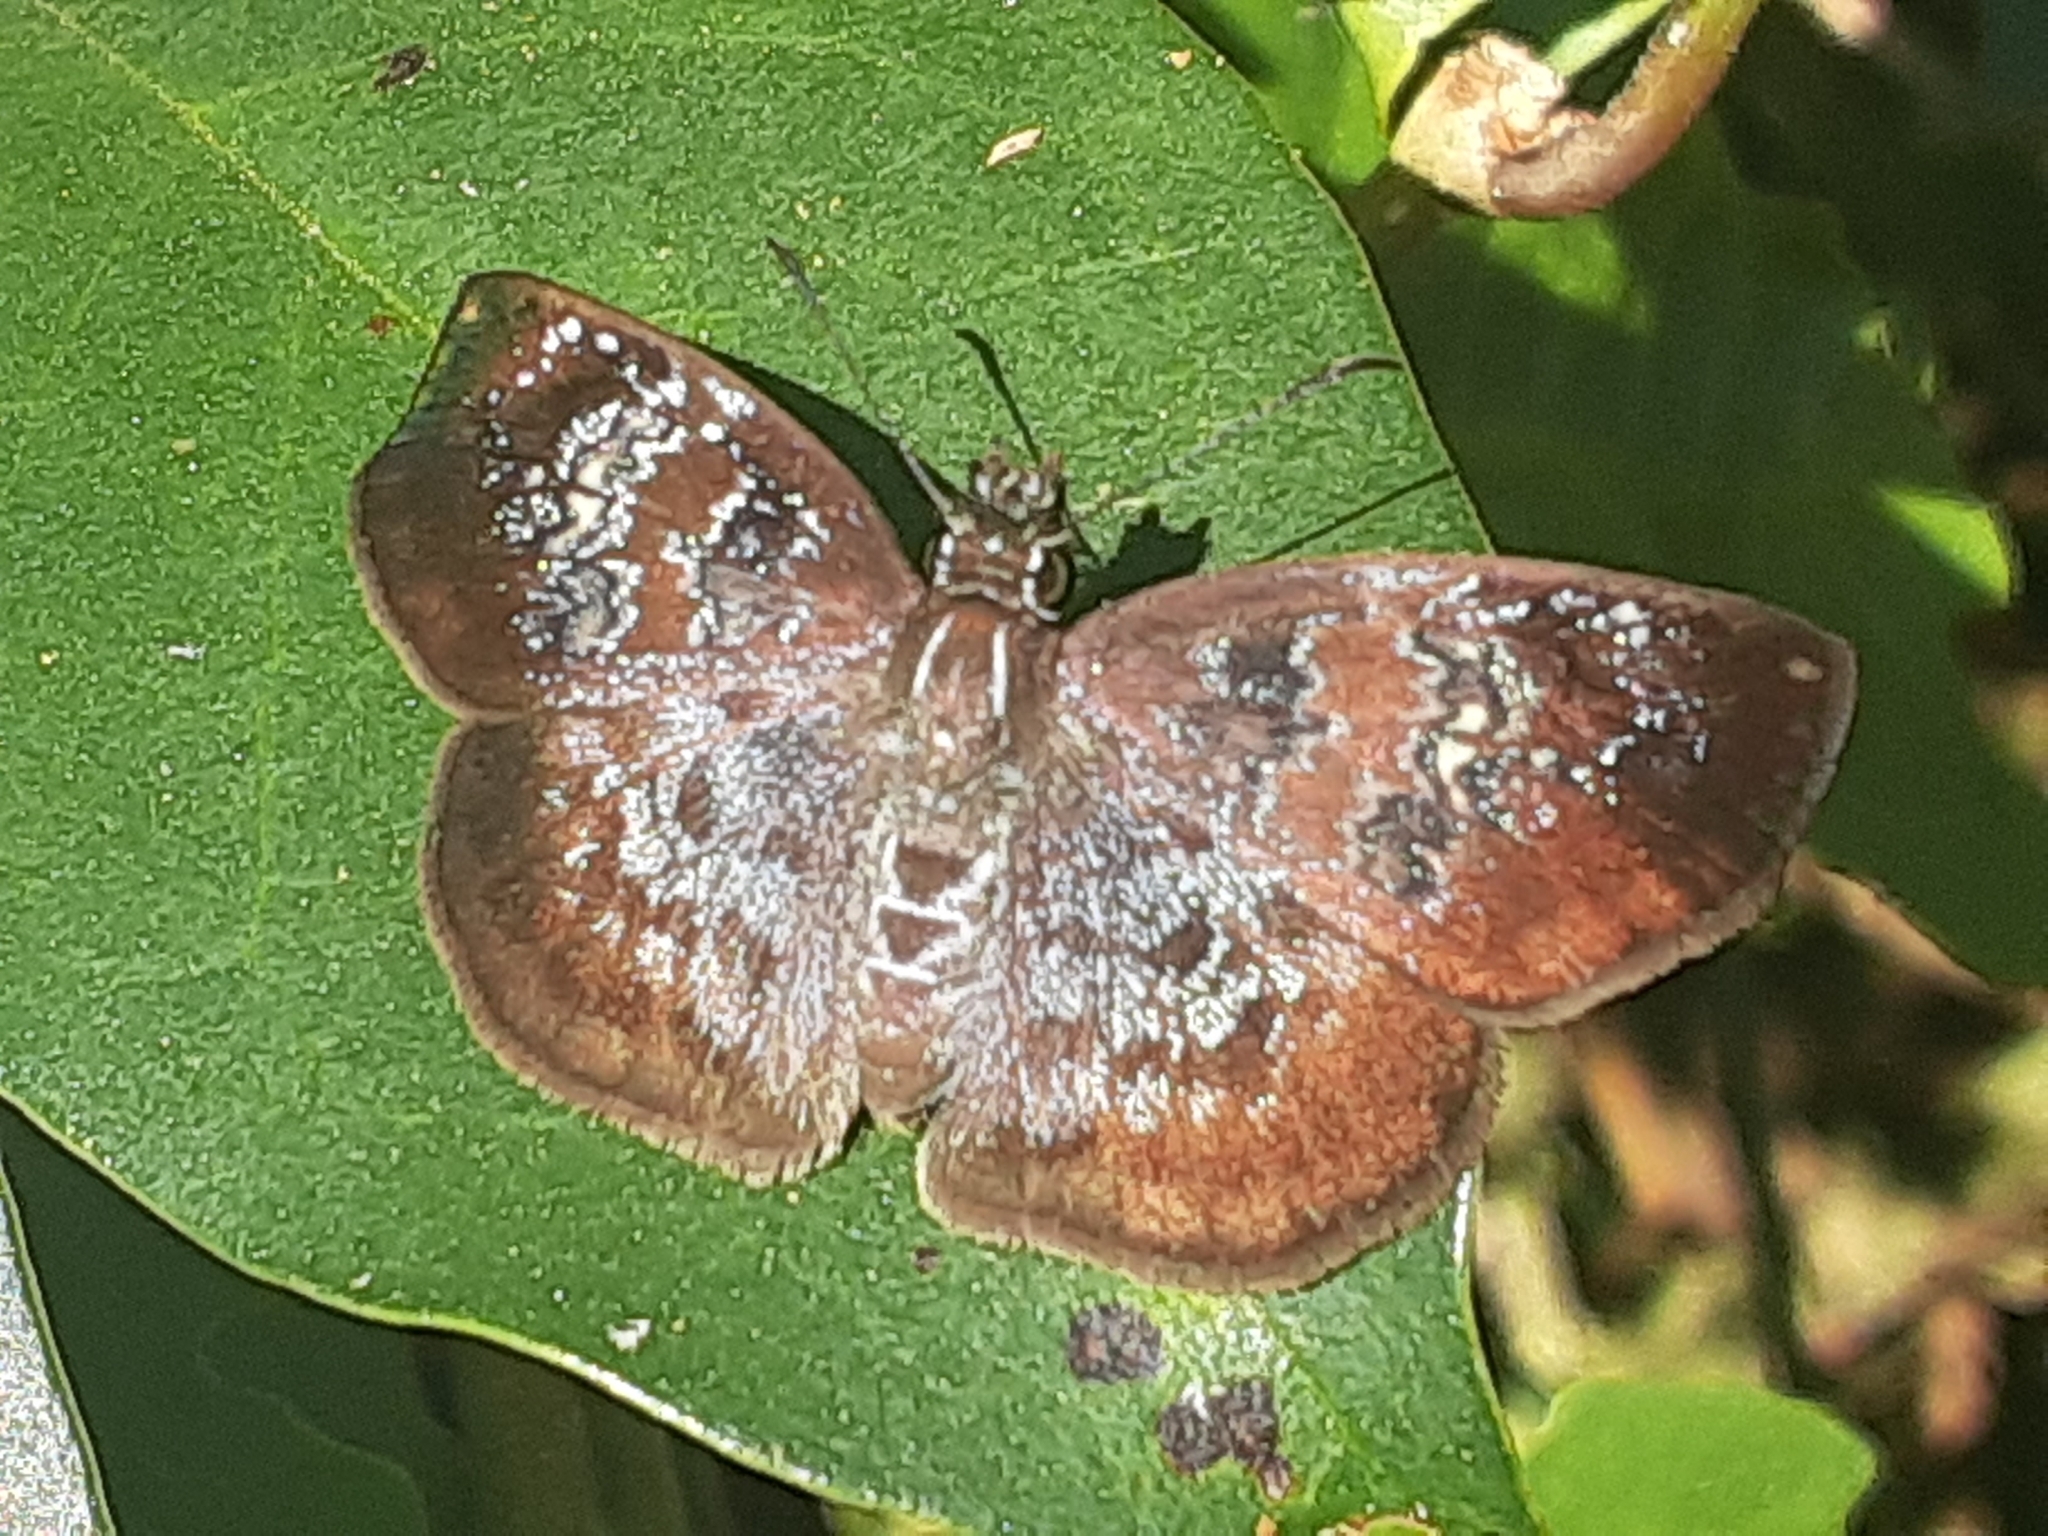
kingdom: Animalia
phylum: Arthropoda
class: Insecta
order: Lepidoptera
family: Hesperiidae
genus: Sophista
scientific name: Sophista bifasciata
